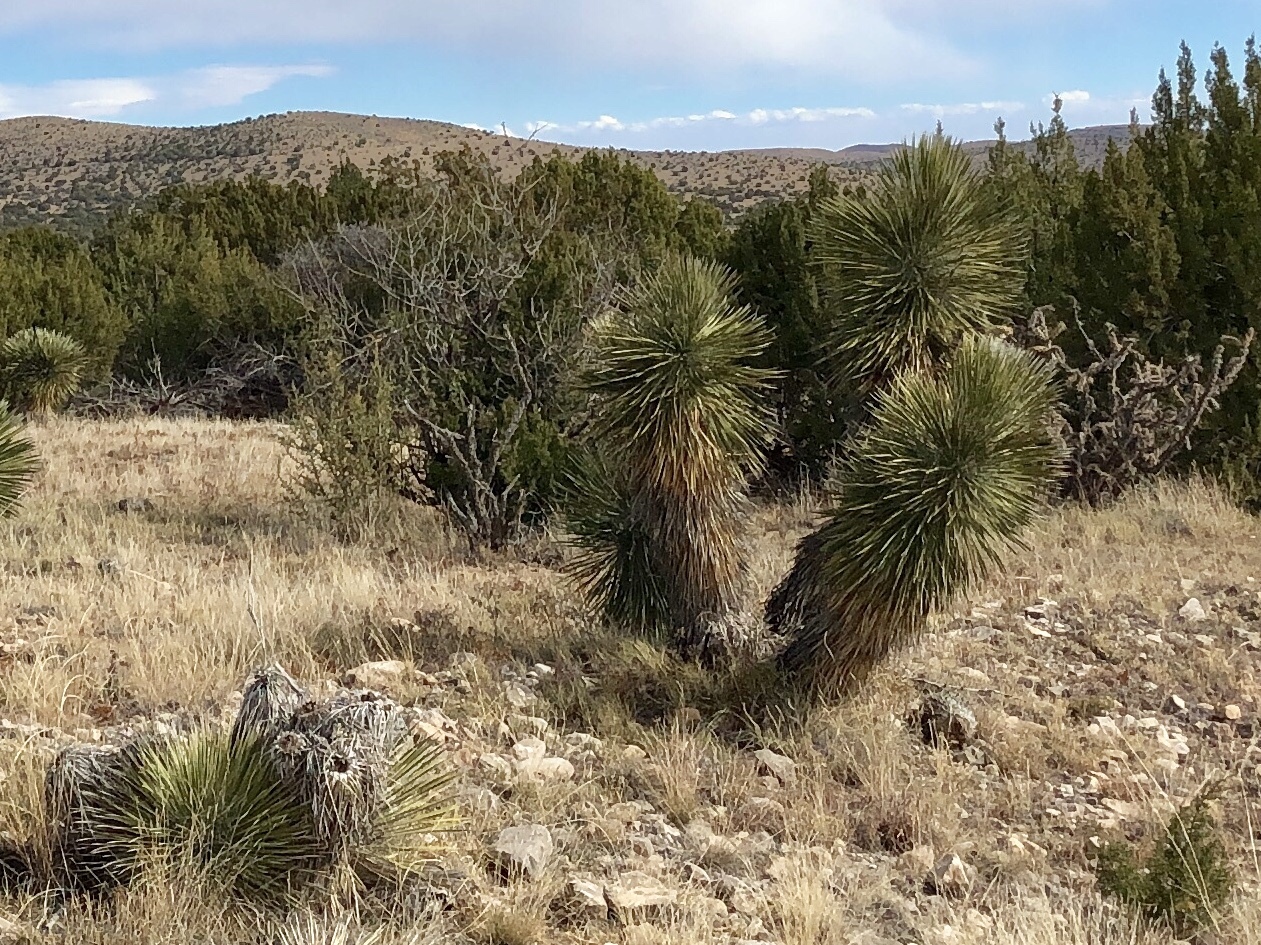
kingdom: Plantae
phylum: Tracheophyta
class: Liliopsida
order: Asparagales
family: Asparagaceae
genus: Yucca
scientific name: Yucca elata
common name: Palmella
